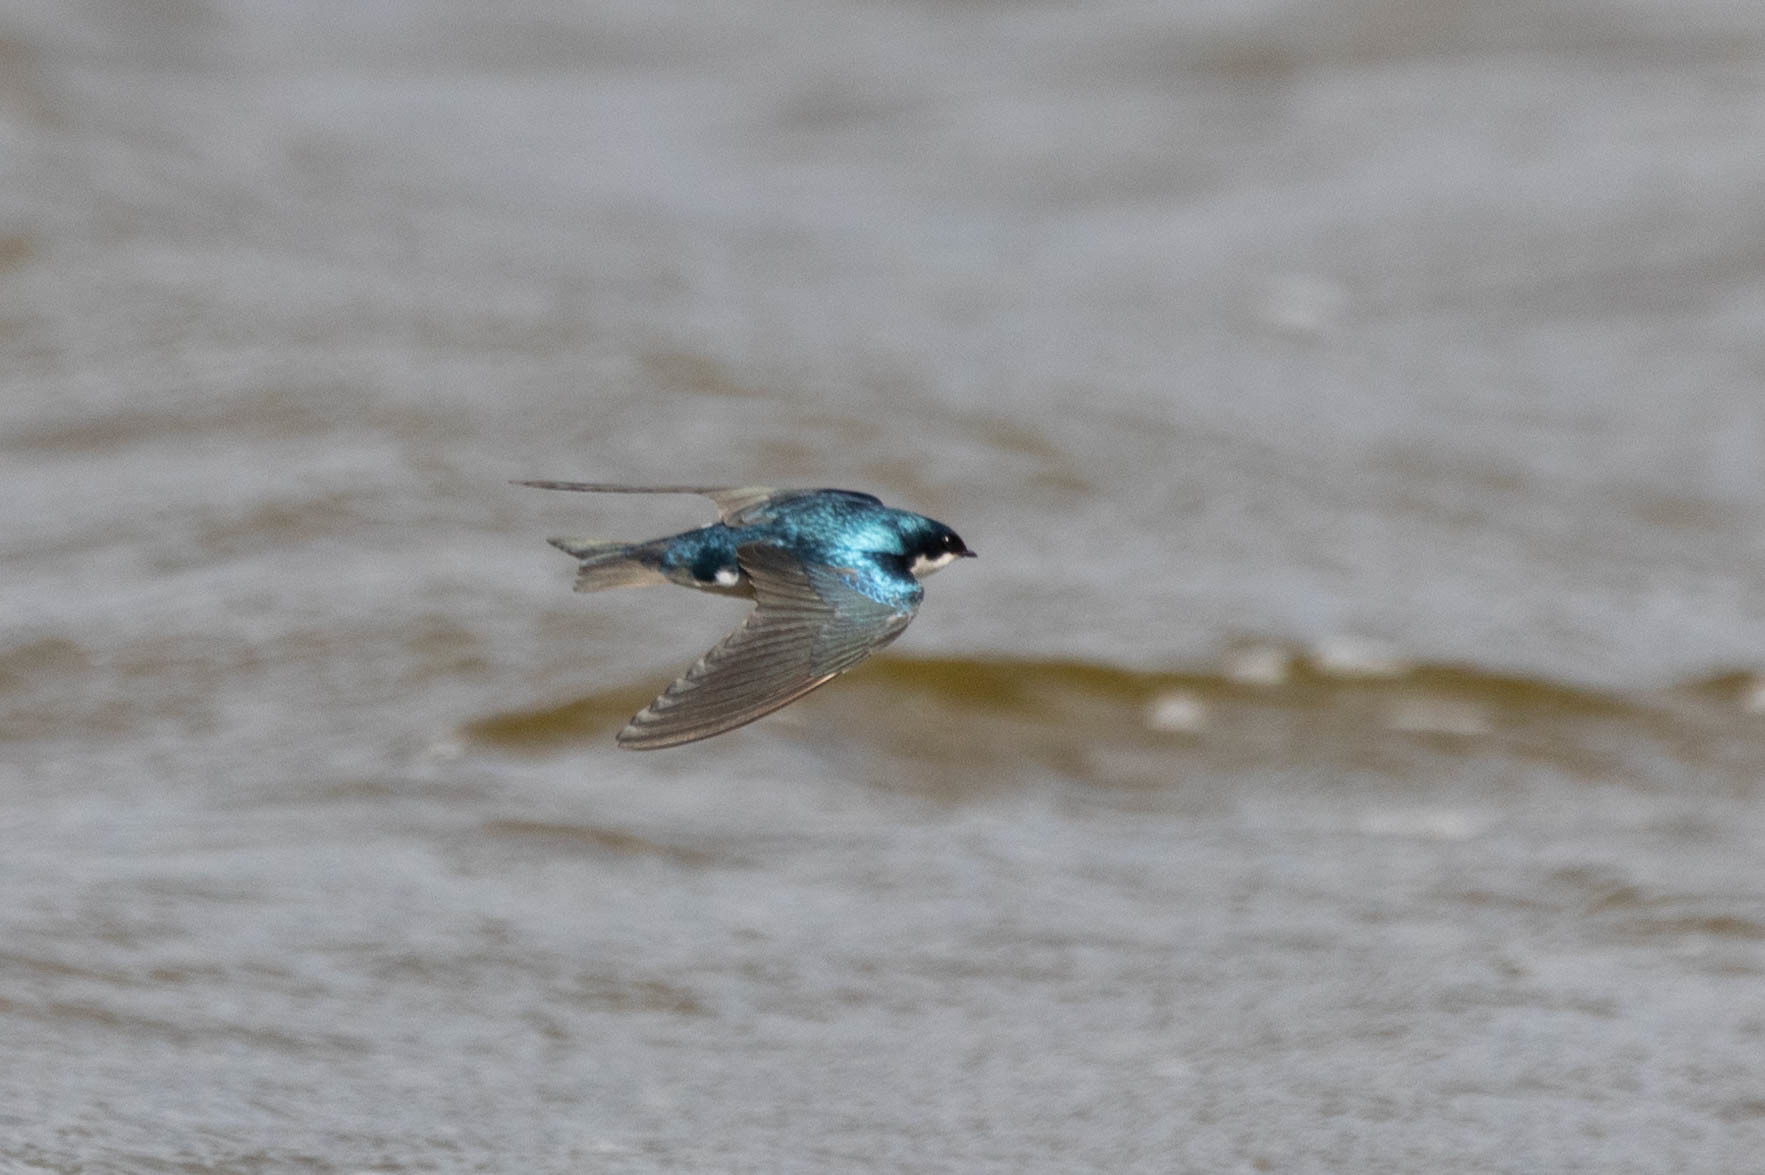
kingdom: Animalia
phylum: Chordata
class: Aves
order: Passeriformes
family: Hirundinidae
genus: Tachycineta
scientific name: Tachycineta bicolor
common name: Tree swallow
